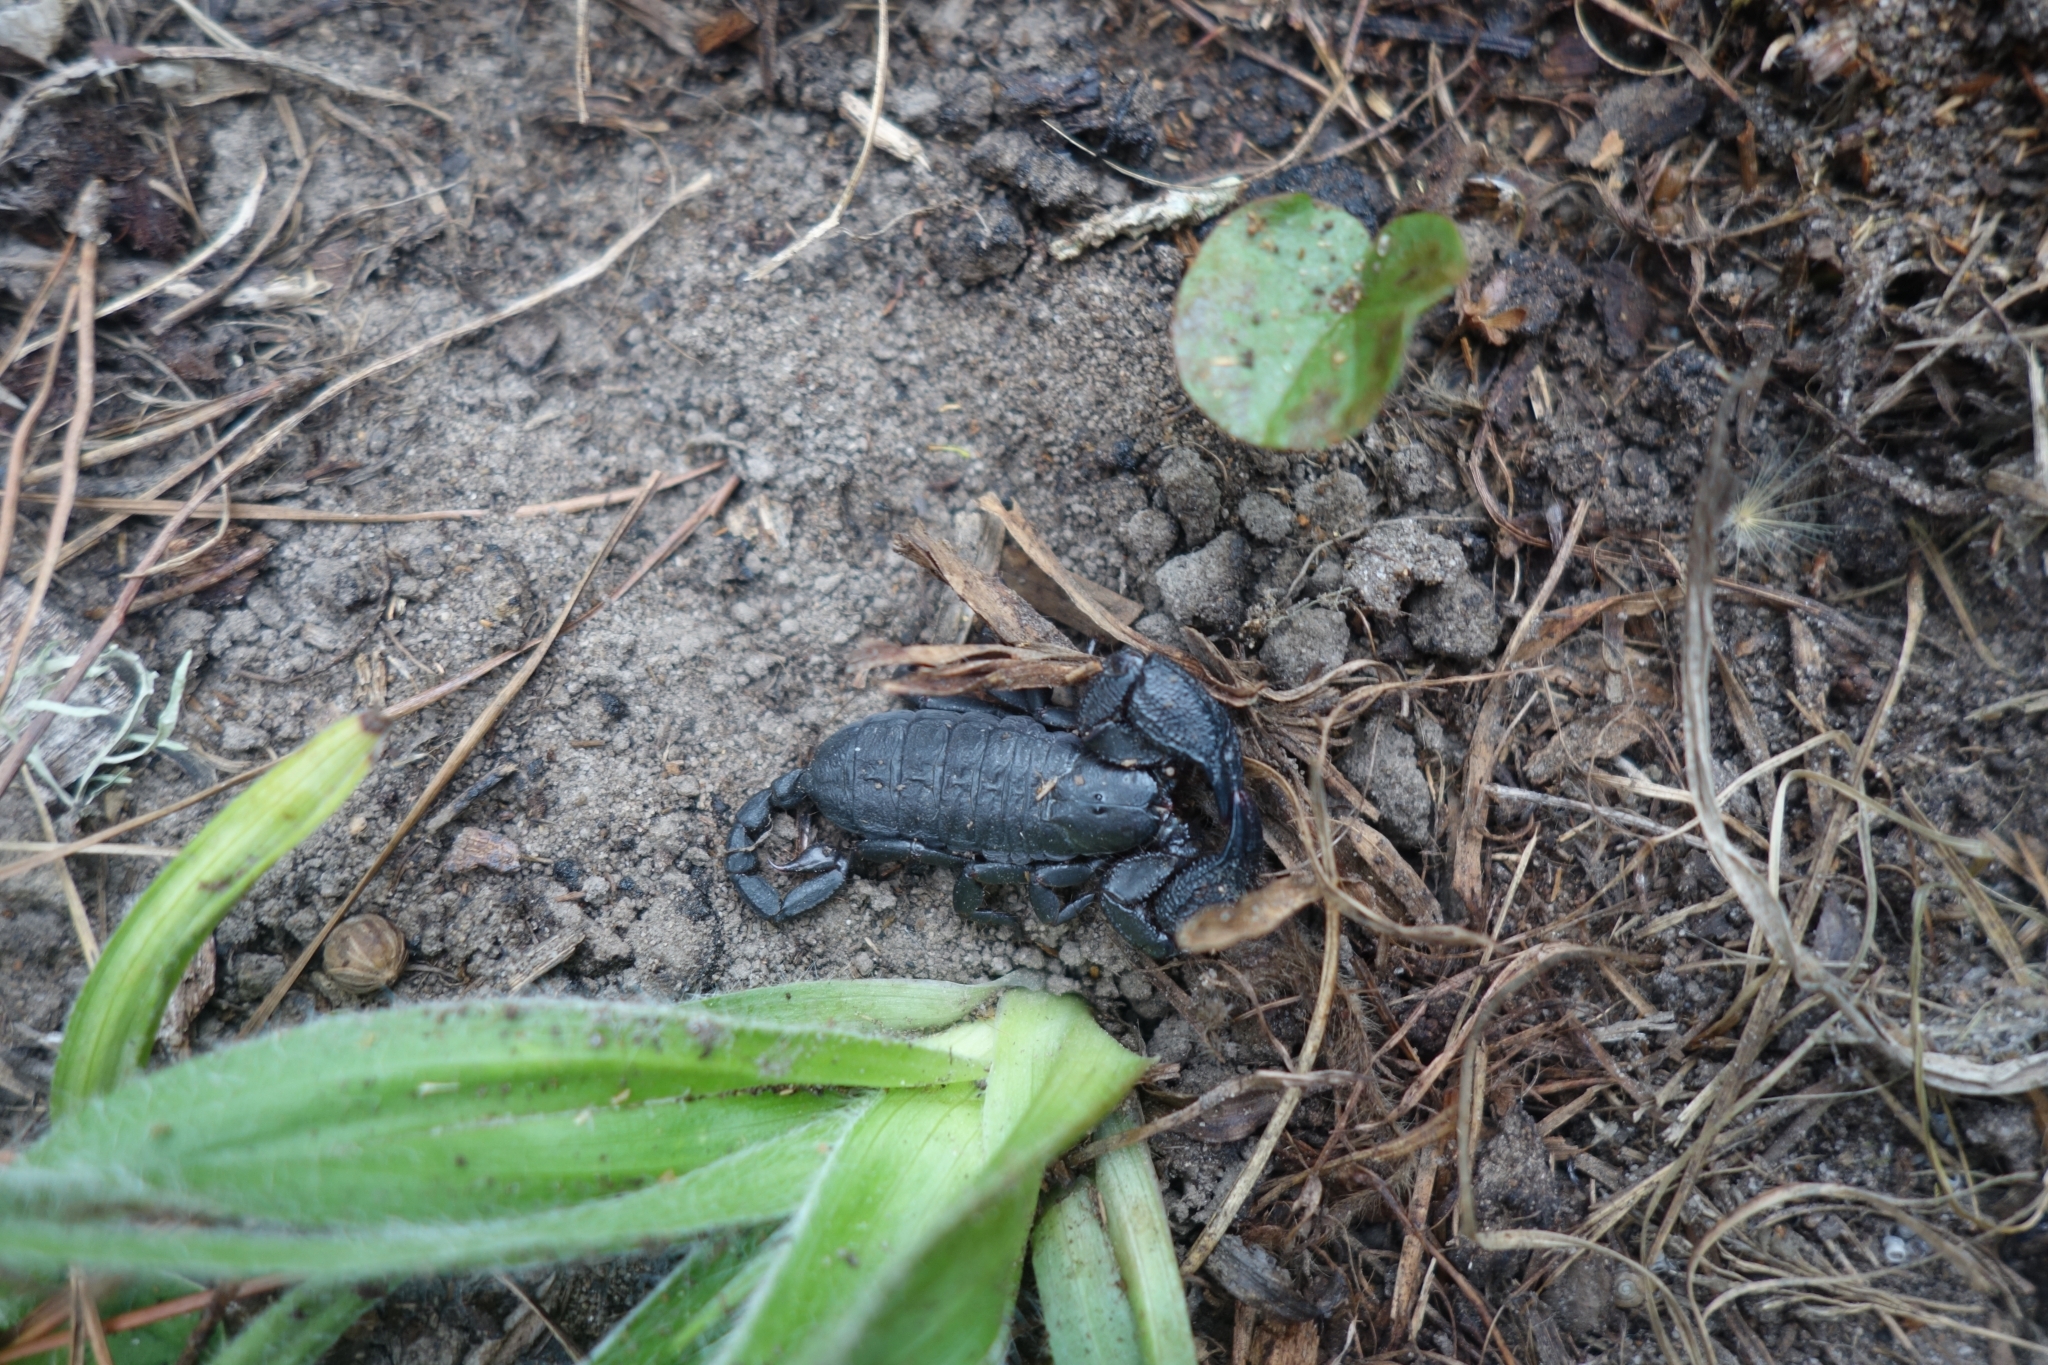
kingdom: Animalia
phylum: Arthropoda
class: Arachnida
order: Scorpiones
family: Hormuridae
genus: Opisthacanthus
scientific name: Opisthacanthus capensis
